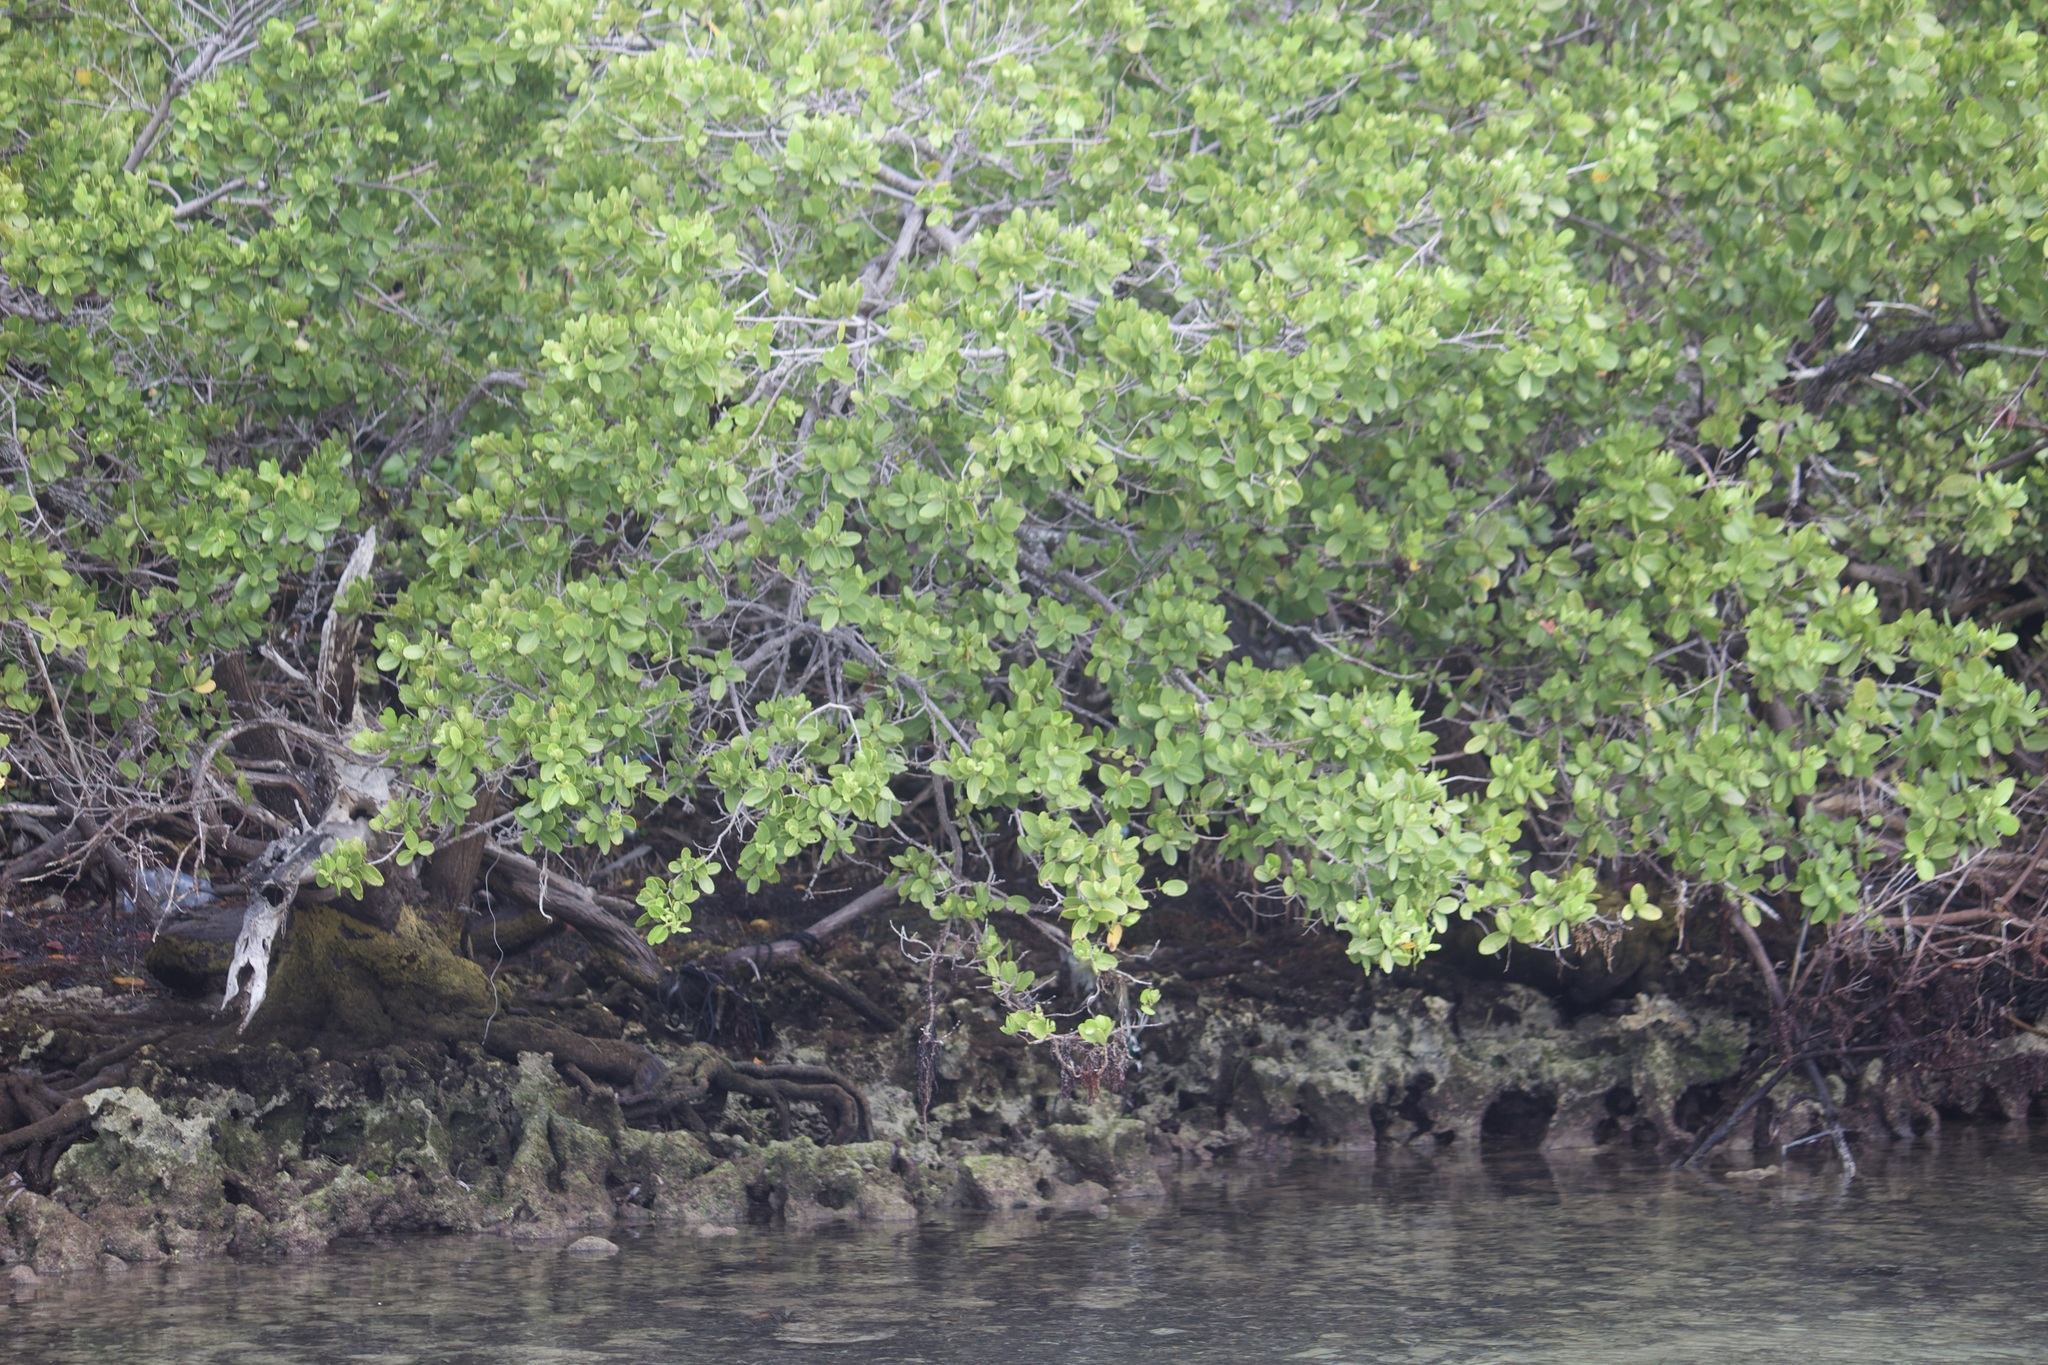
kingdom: Plantae
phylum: Tracheophyta
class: Magnoliopsida
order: Myrtales
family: Combretaceae
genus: Laguncularia
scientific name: Laguncularia racemosa
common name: White mangrove
